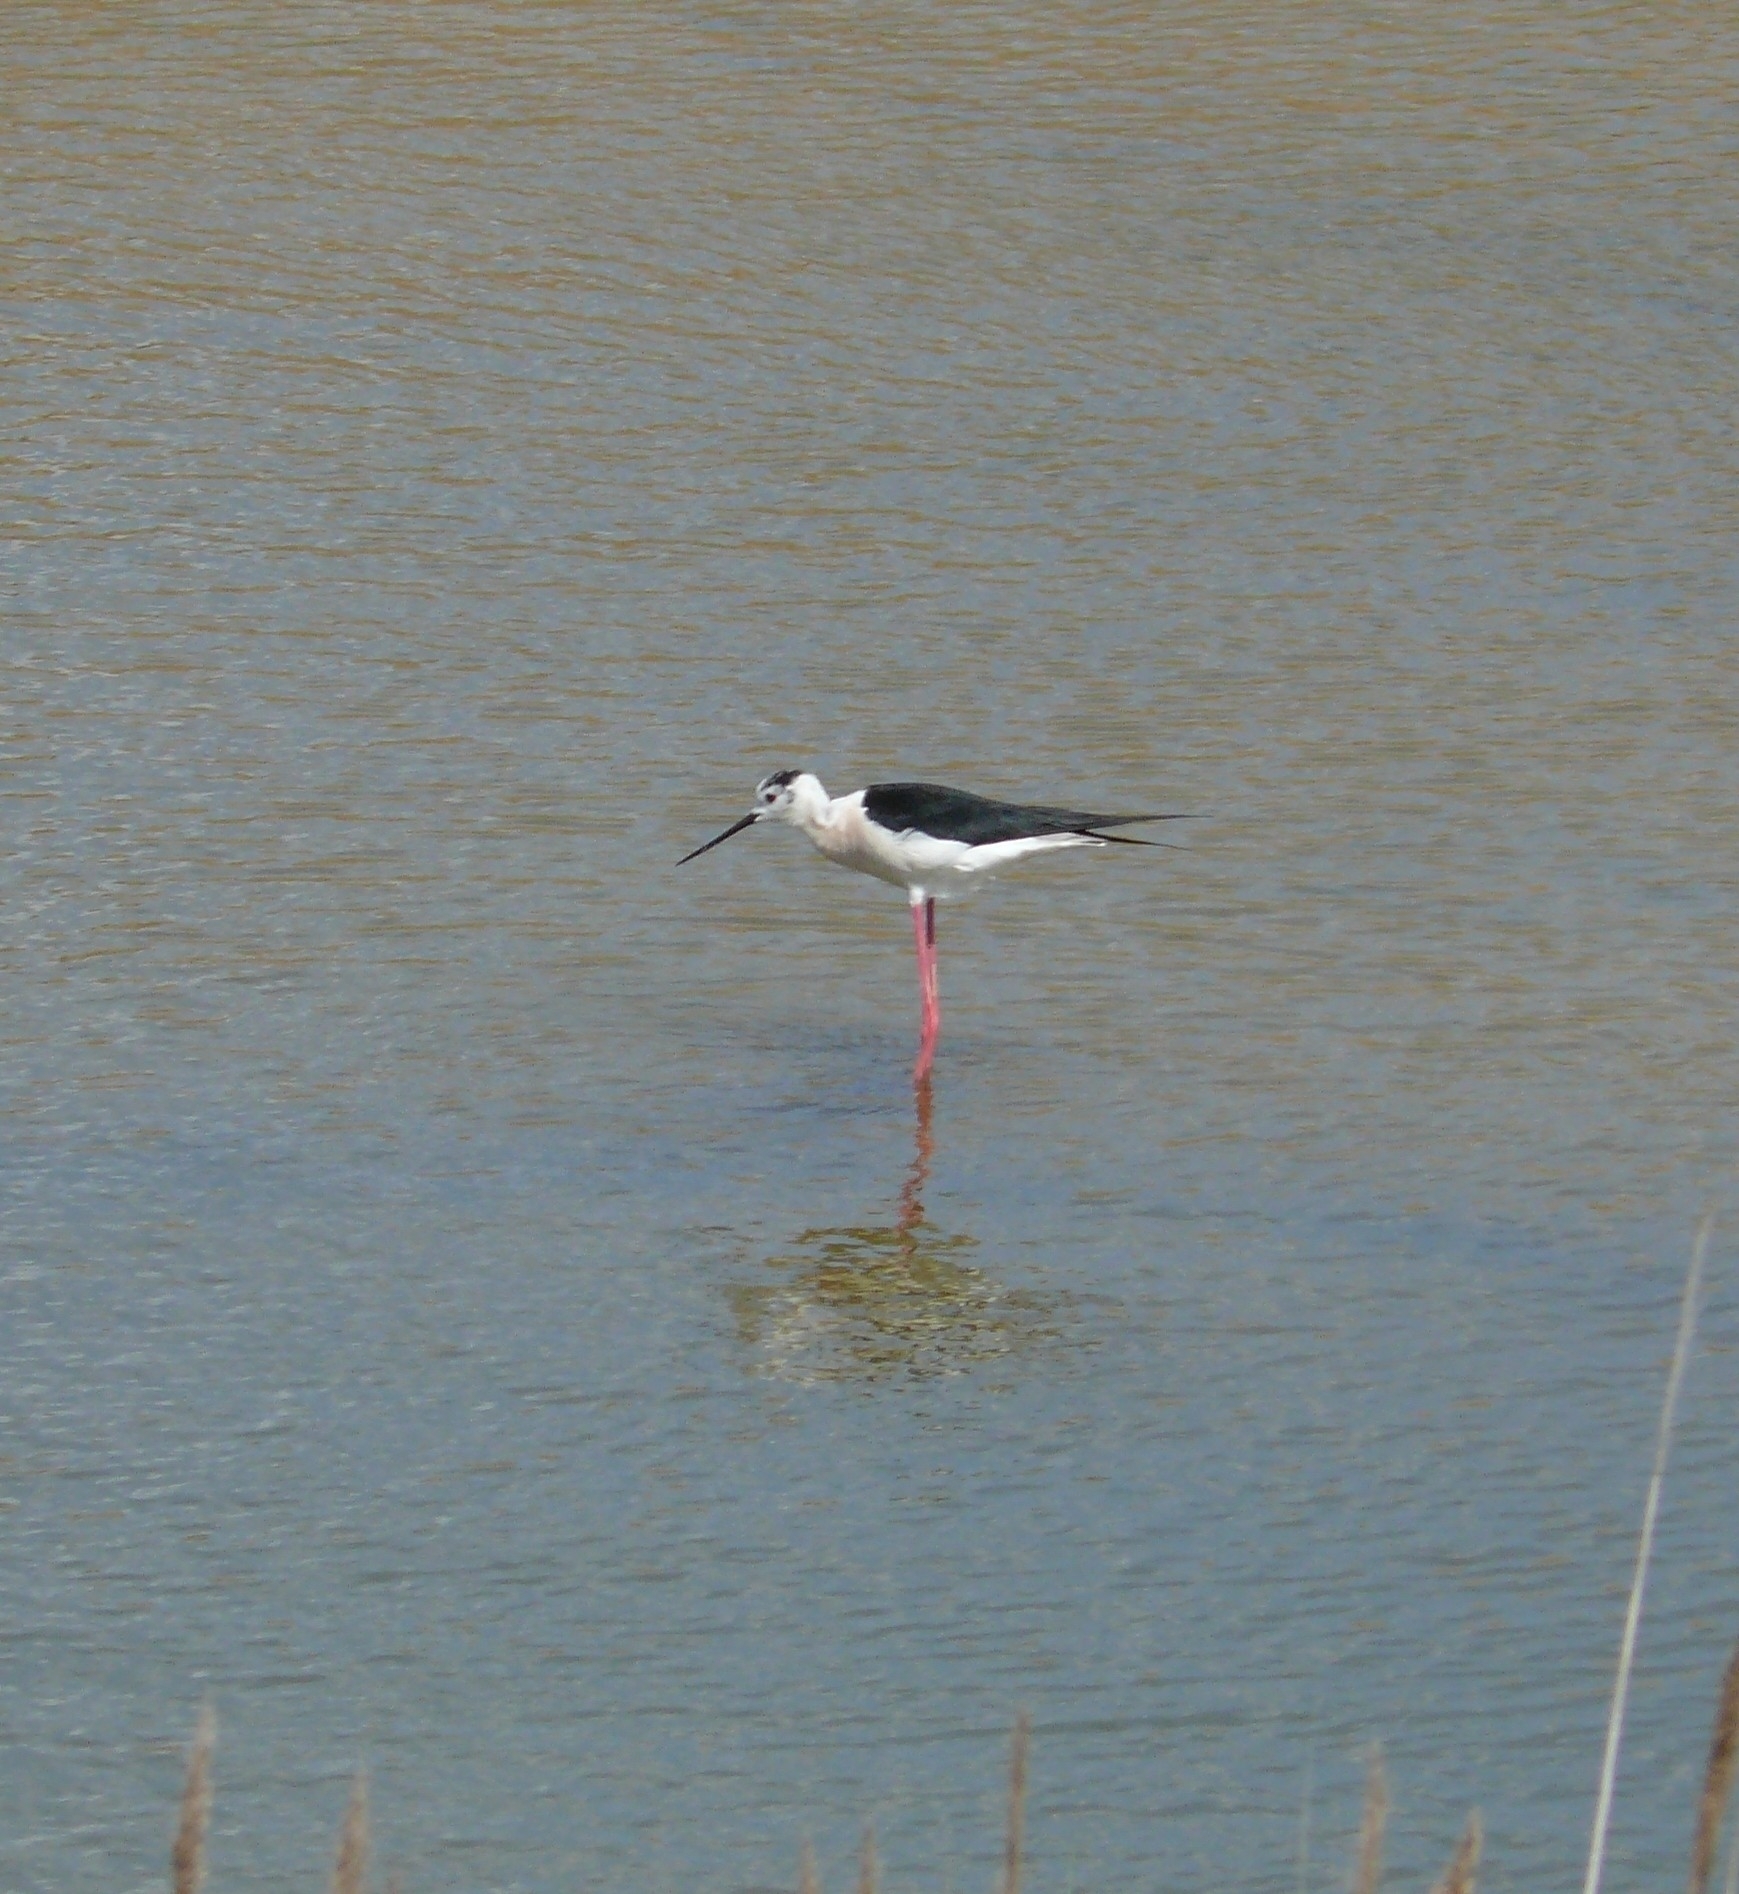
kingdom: Animalia
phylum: Chordata
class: Aves
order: Charadriiformes
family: Recurvirostridae
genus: Himantopus
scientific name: Himantopus himantopus
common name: Black-winged stilt
